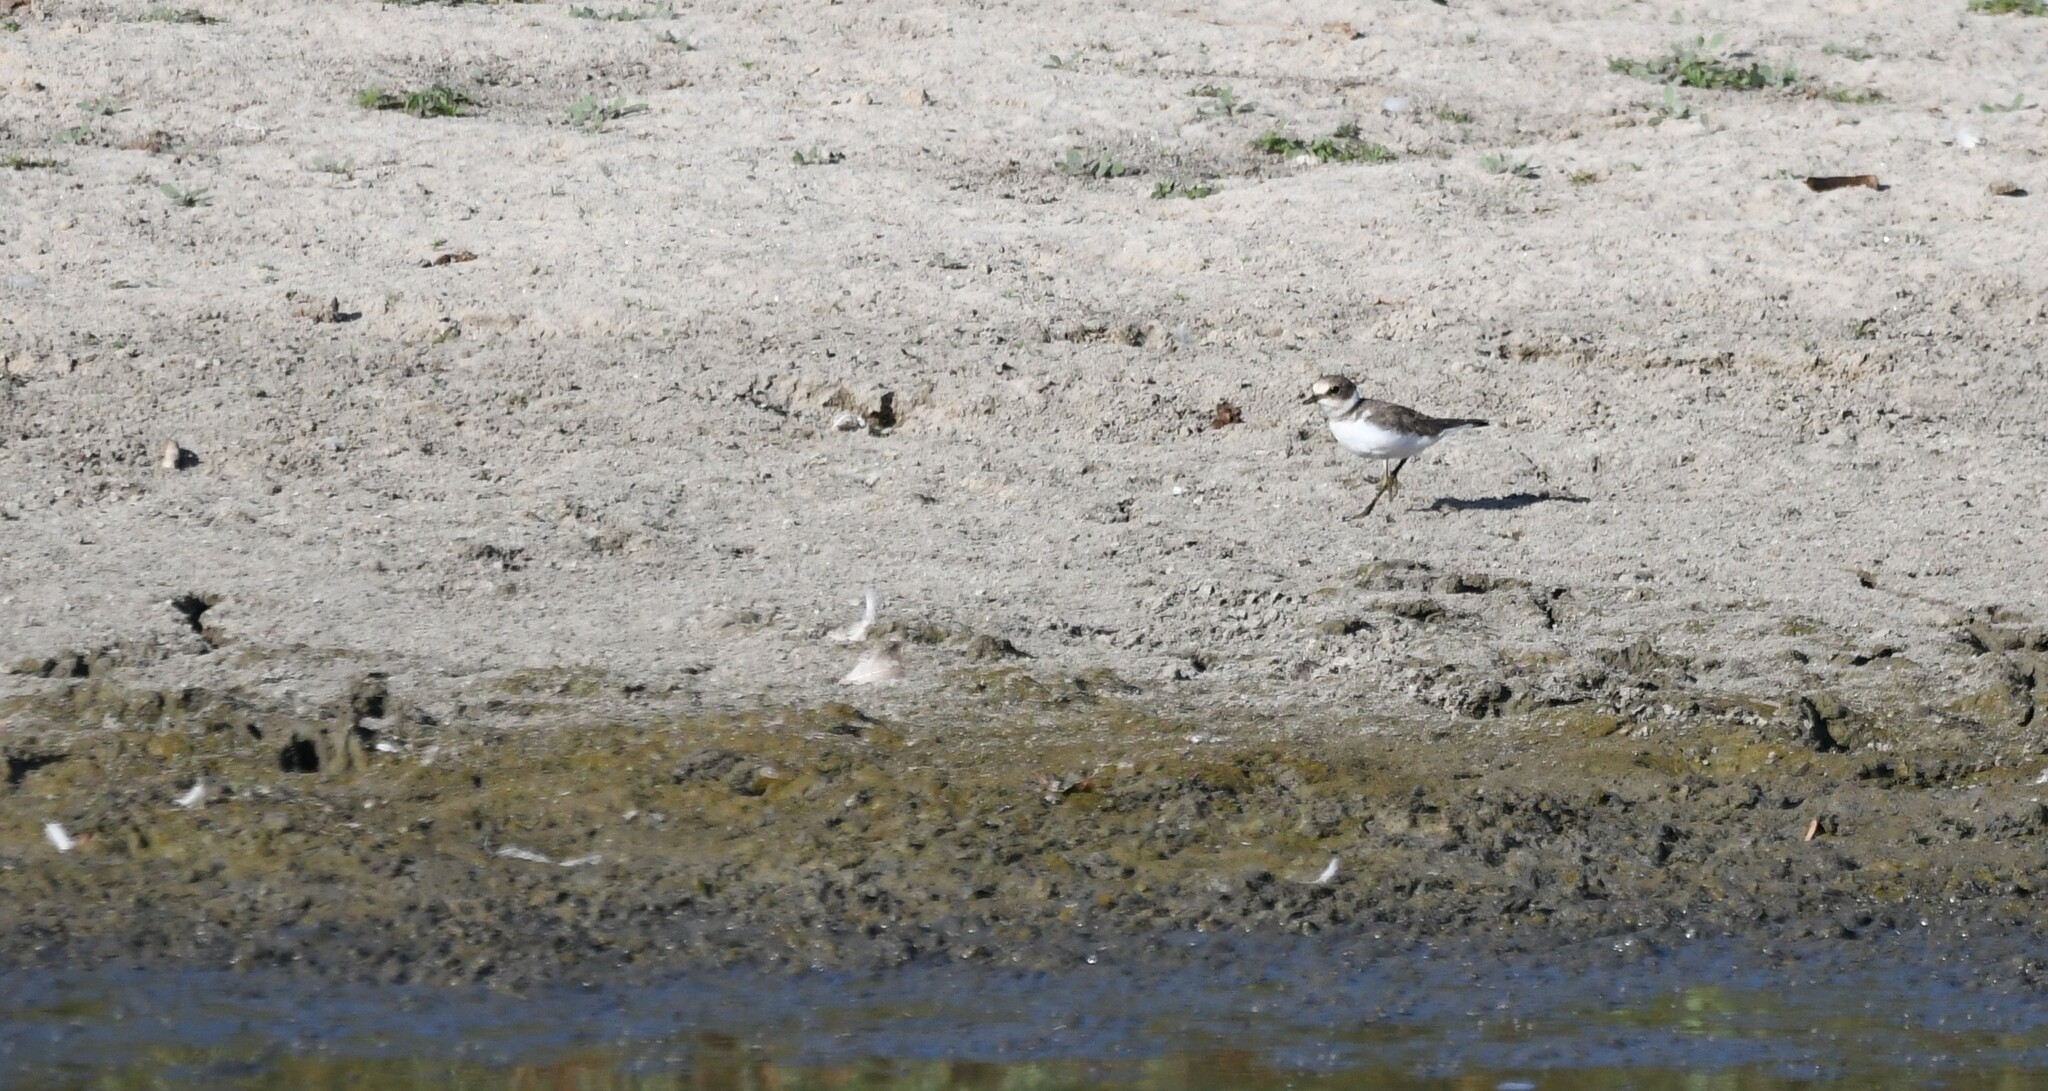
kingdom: Animalia
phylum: Chordata
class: Aves
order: Charadriiformes
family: Charadriidae
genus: Charadrius
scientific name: Charadrius dubius
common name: Little ringed plover
